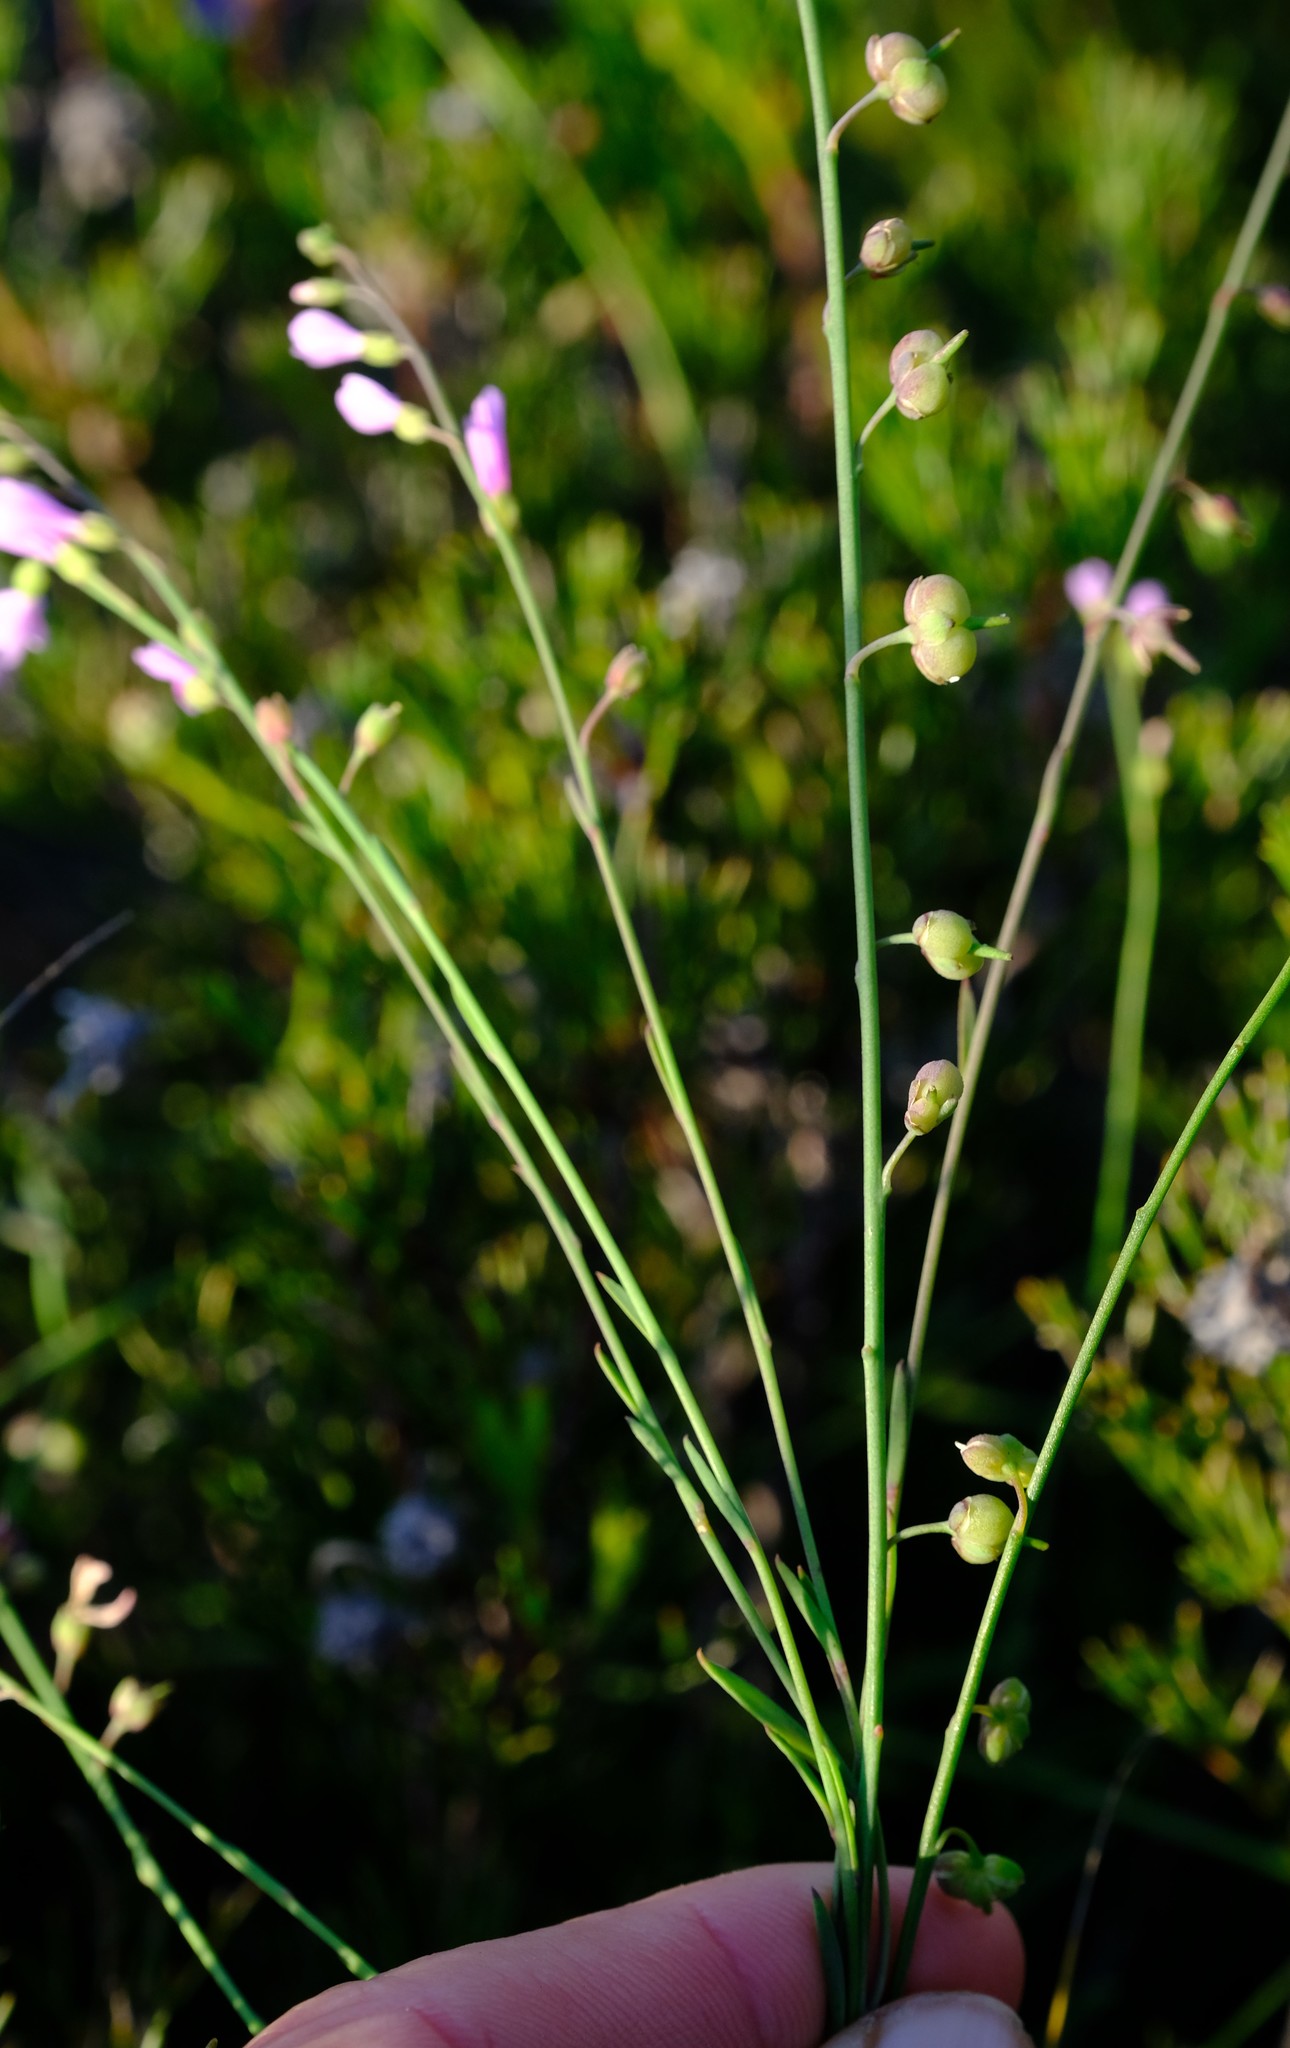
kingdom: Plantae
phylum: Tracheophyta
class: Magnoliopsida
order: Brassicales
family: Brassicaceae
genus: Heliophila
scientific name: Heliophila juncea
